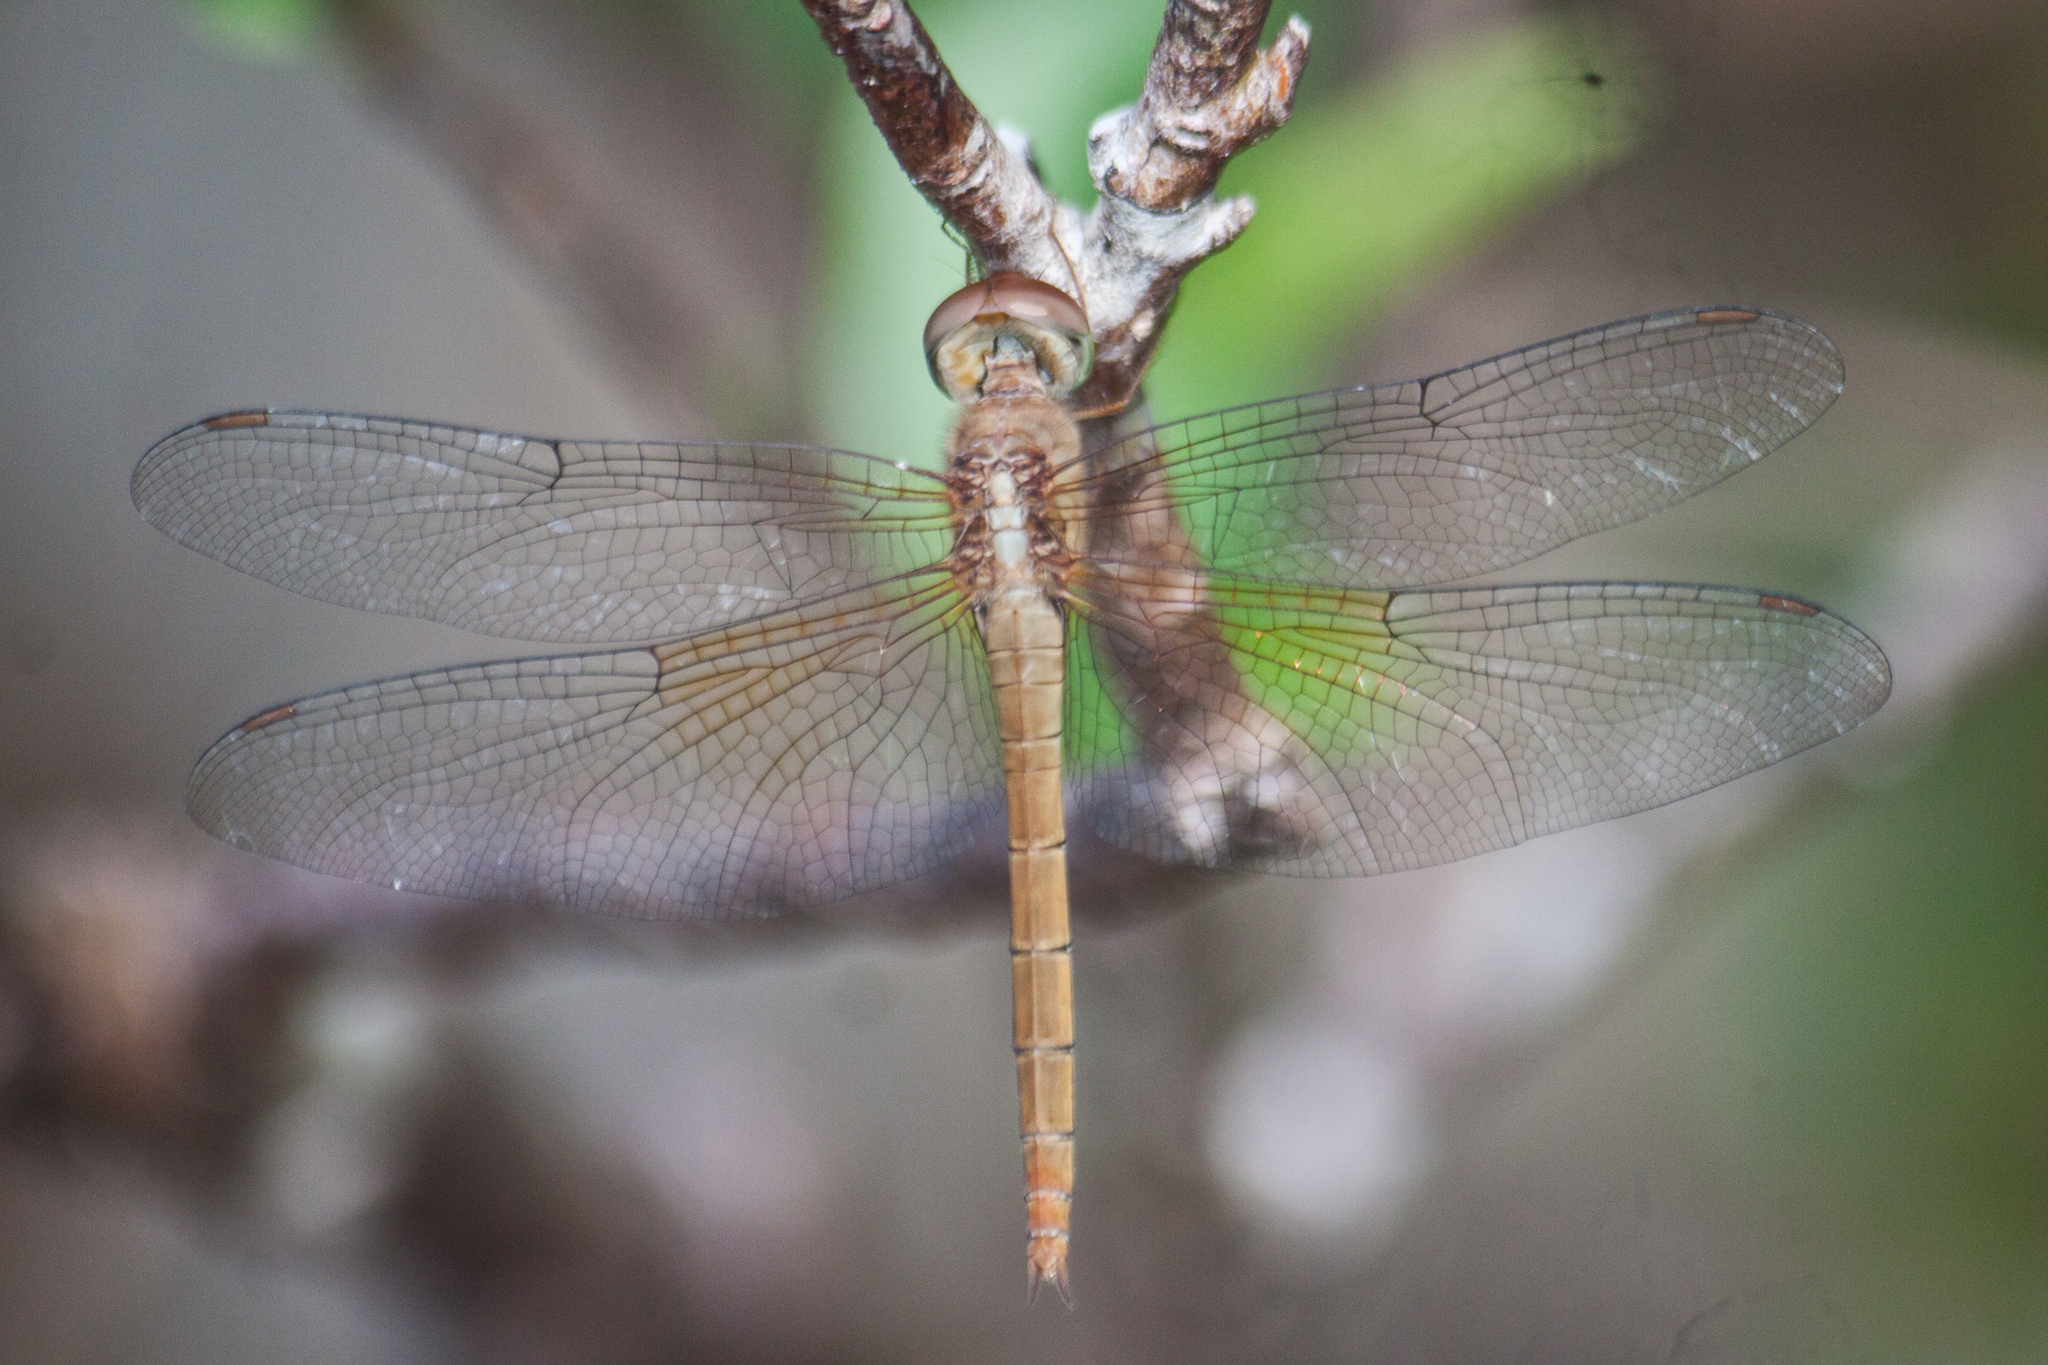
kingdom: Animalia
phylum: Arthropoda
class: Insecta
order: Odonata
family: Libellulidae
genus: Tholymis
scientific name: Tholymis tillarga
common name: Coral-tailed cloud wing
